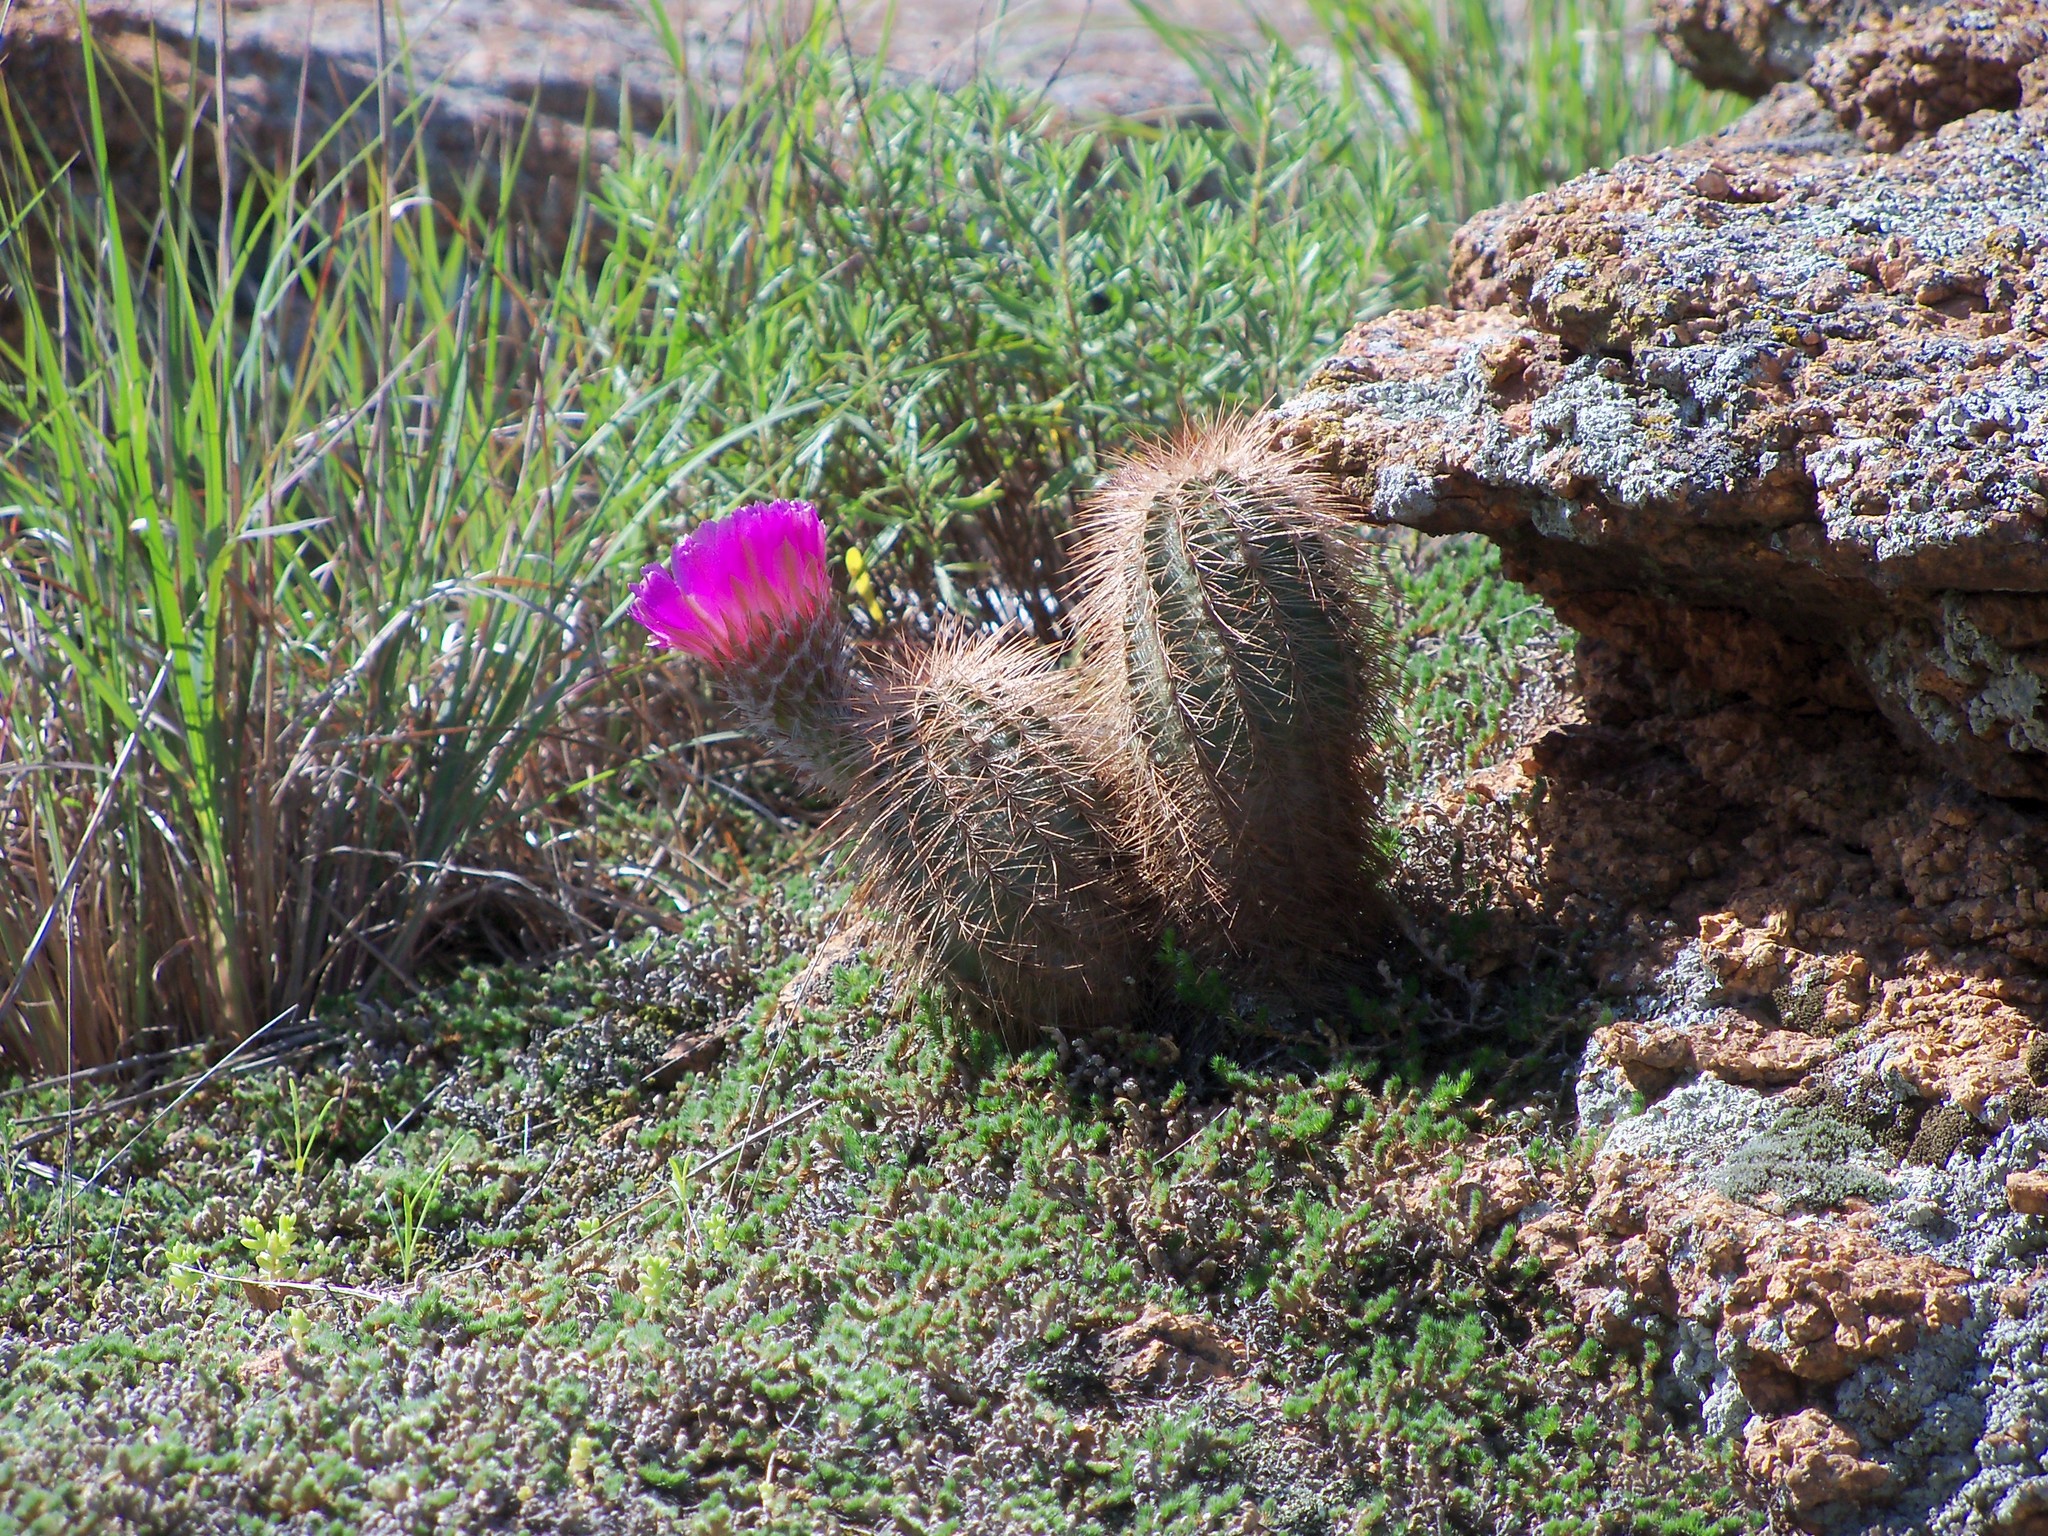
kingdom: Plantae
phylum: Tracheophyta
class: Magnoliopsida
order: Caryophyllales
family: Cactaceae
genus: Echinocereus
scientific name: Echinocereus reichenbachii
